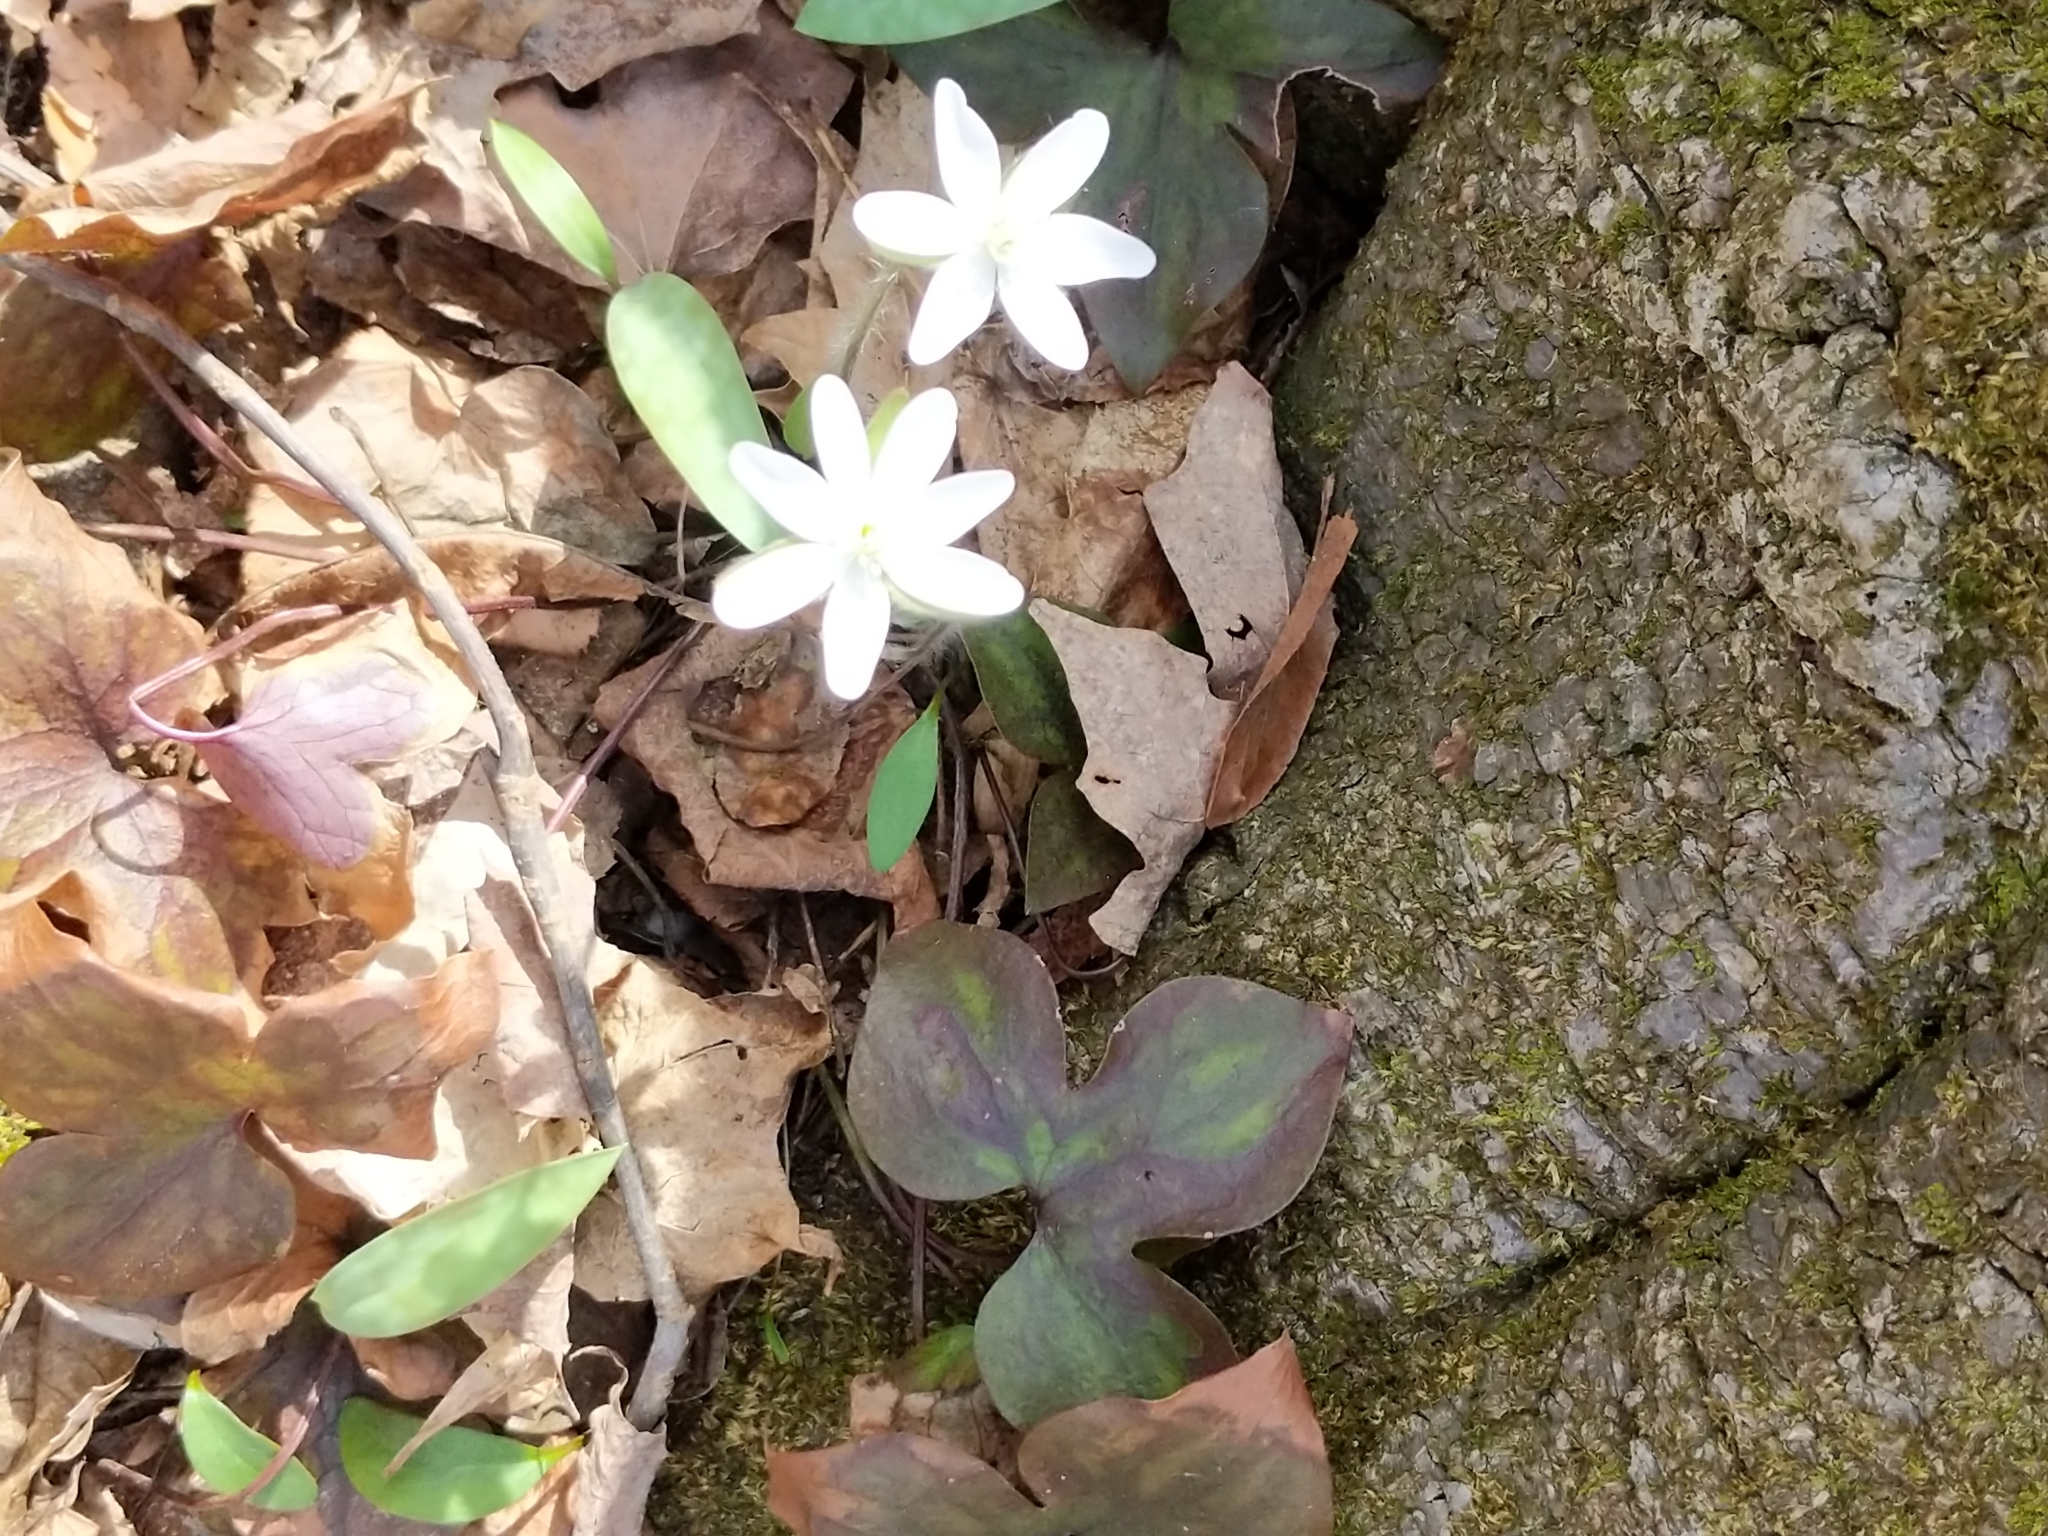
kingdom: Plantae
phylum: Tracheophyta
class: Magnoliopsida
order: Ranunculales
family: Ranunculaceae
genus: Hepatica
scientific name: Hepatica acutiloba
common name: Sharp-lobed hepatica
